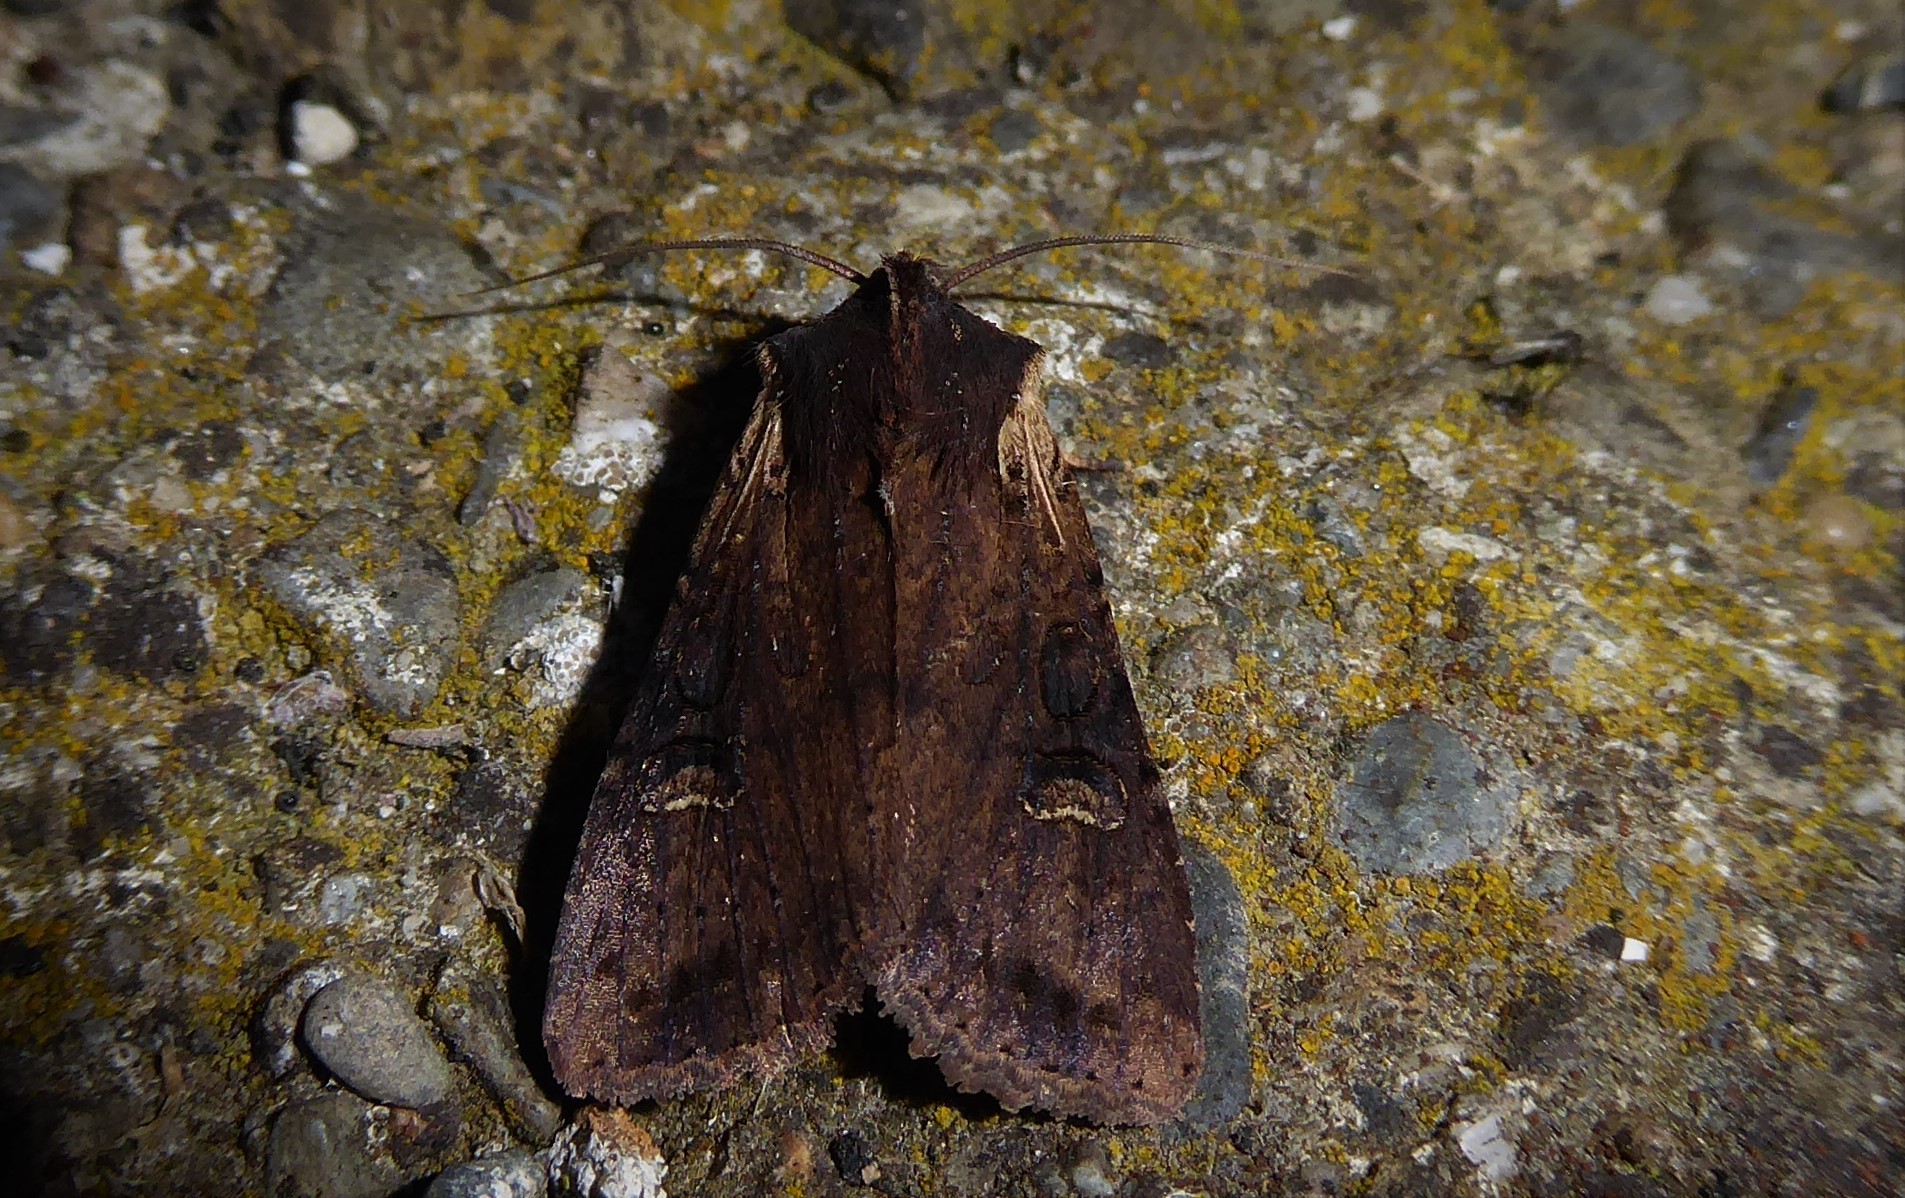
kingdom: Animalia
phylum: Arthropoda
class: Insecta
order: Lepidoptera
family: Noctuidae
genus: Ichneutica
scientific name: Ichneutica omoplaca
